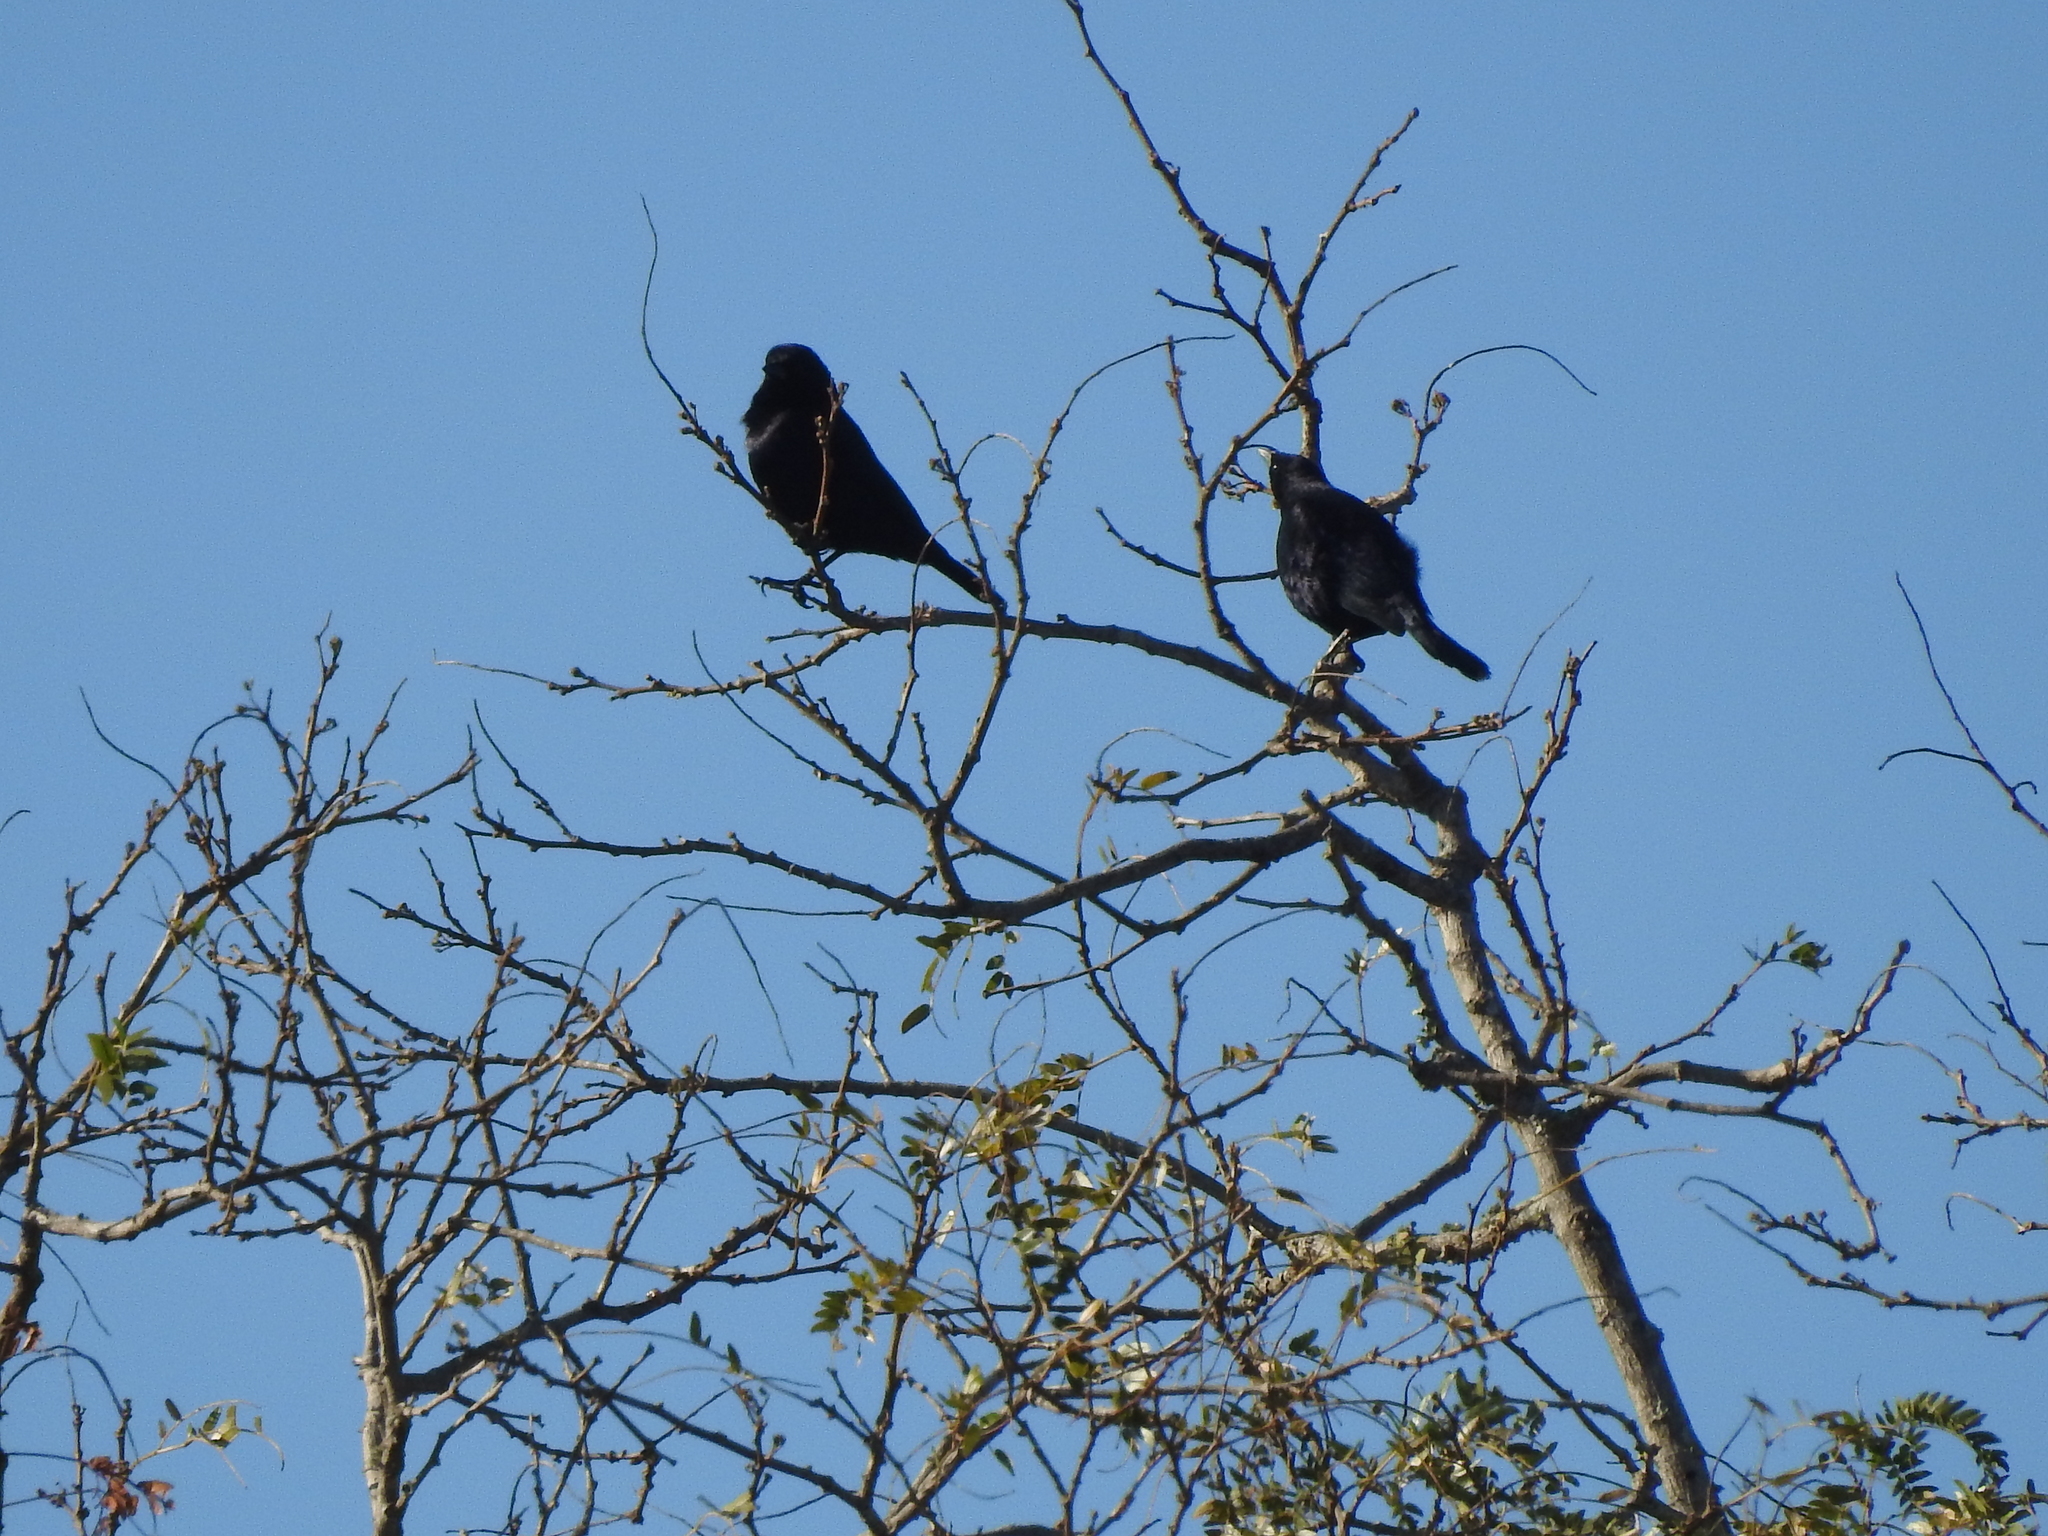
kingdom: Animalia
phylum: Chordata
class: Aves
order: Passeriformes
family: Icteridae
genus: Molothrus
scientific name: Molothrus rufoaxillaris
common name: Screaming cowbird
